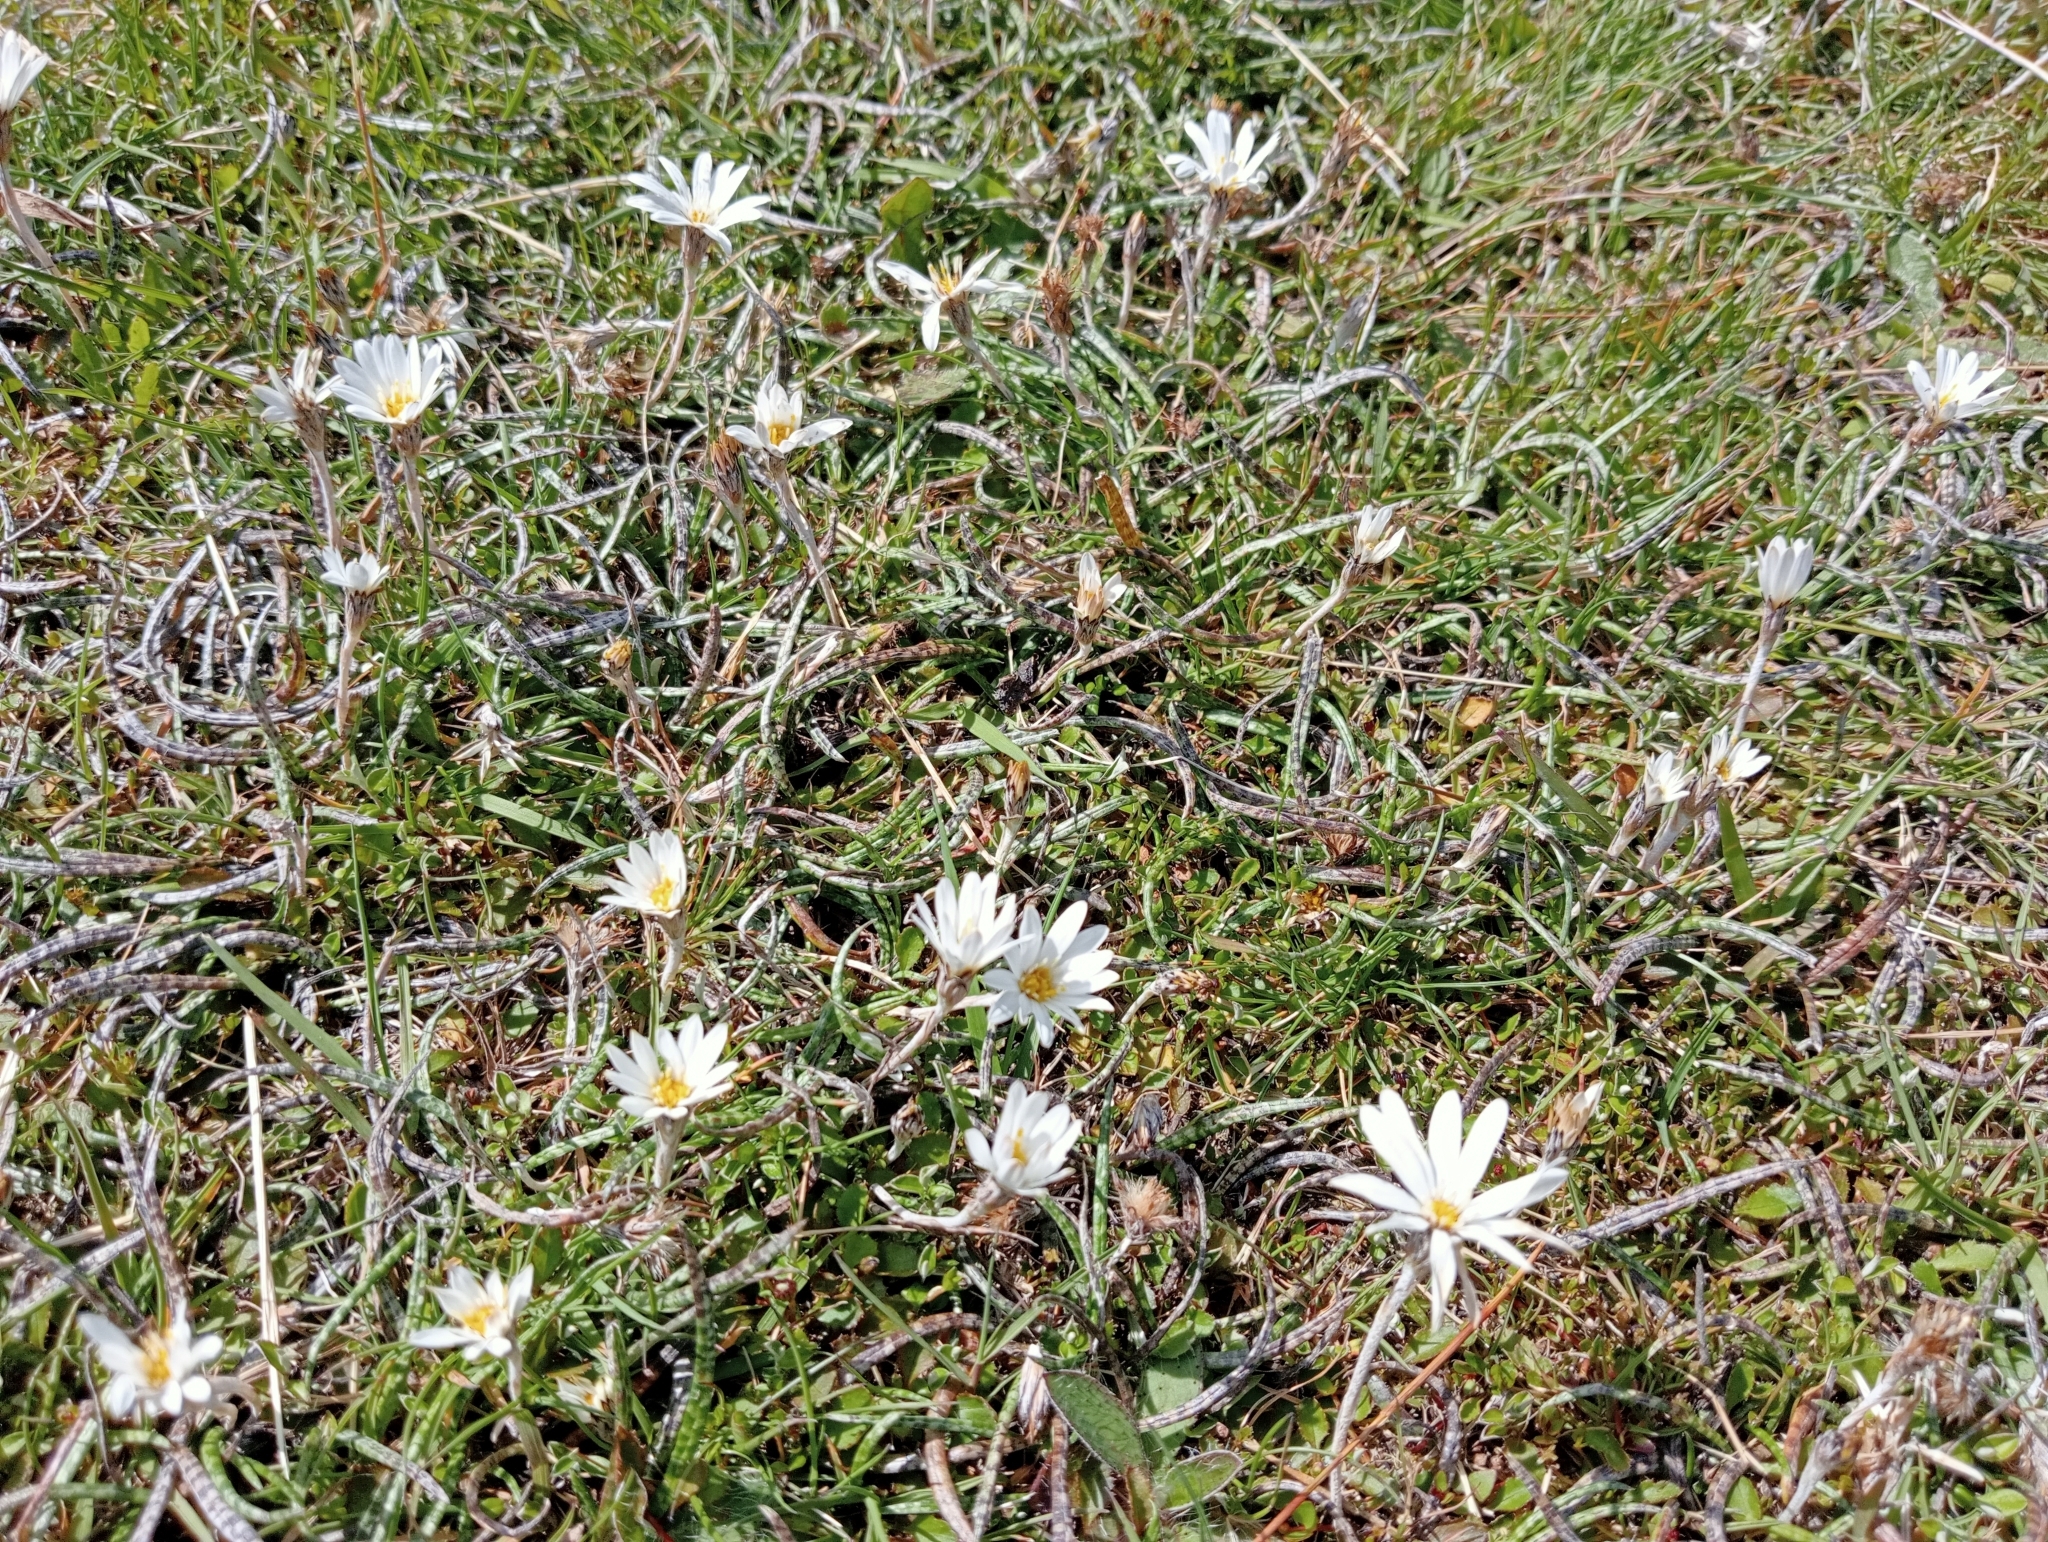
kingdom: Plantae
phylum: Tracheophyta
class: Magnoliopsida
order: Asterales
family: Asteraceae
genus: Celmisia
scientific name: Celmisia gracilenta
